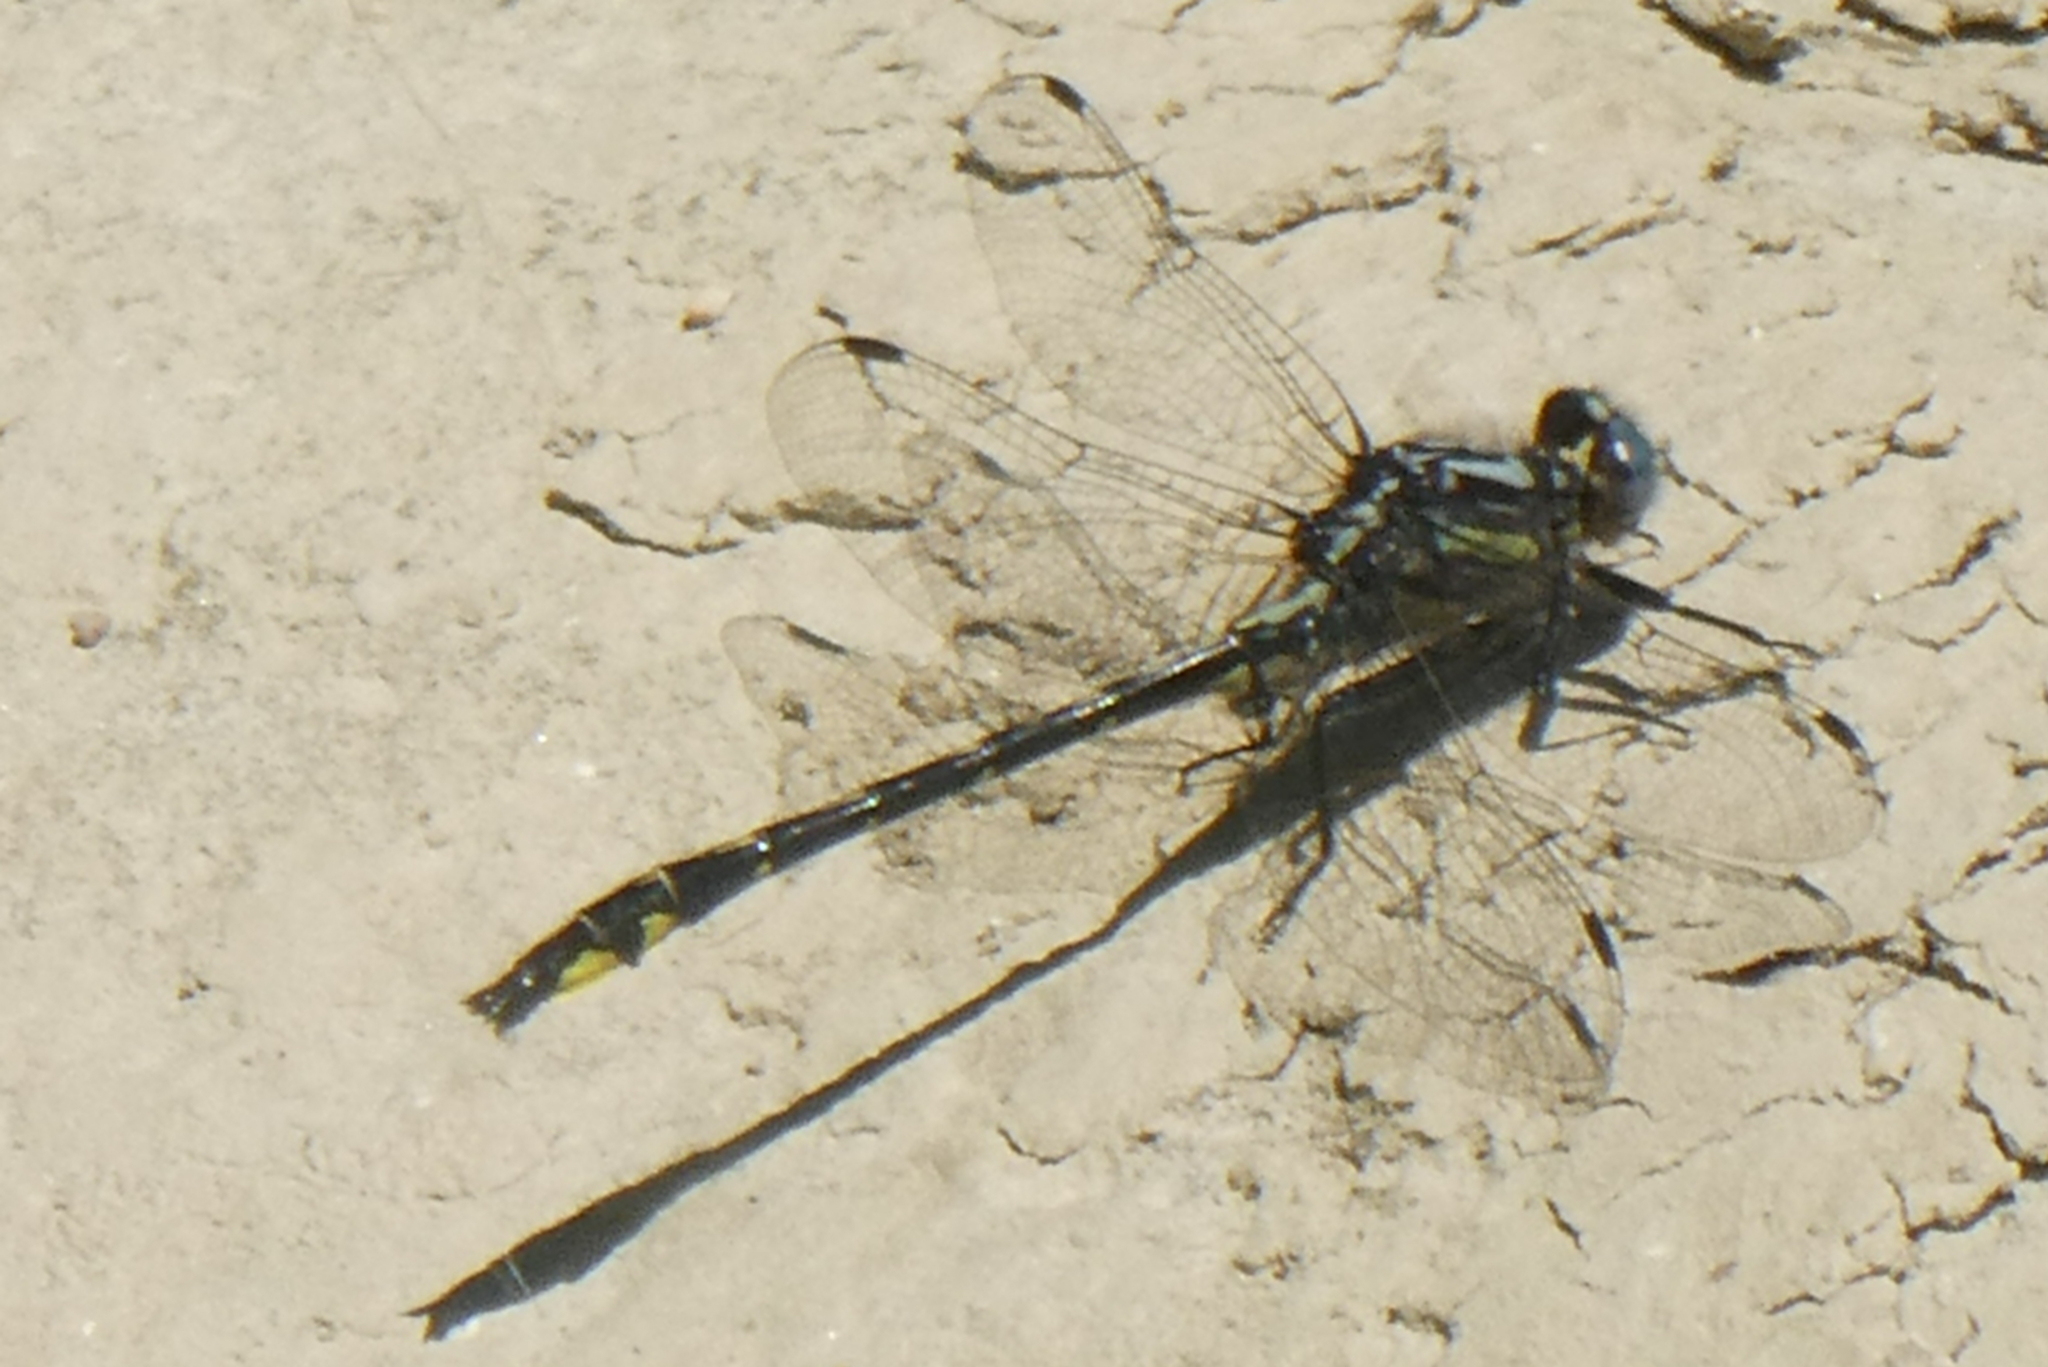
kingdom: Animalia
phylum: Arthropoda
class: Insecta
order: Odonata
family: Gomphidae
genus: Phanogomphus
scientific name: Phanogomphus quadricolor
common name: Rapids clubtail
